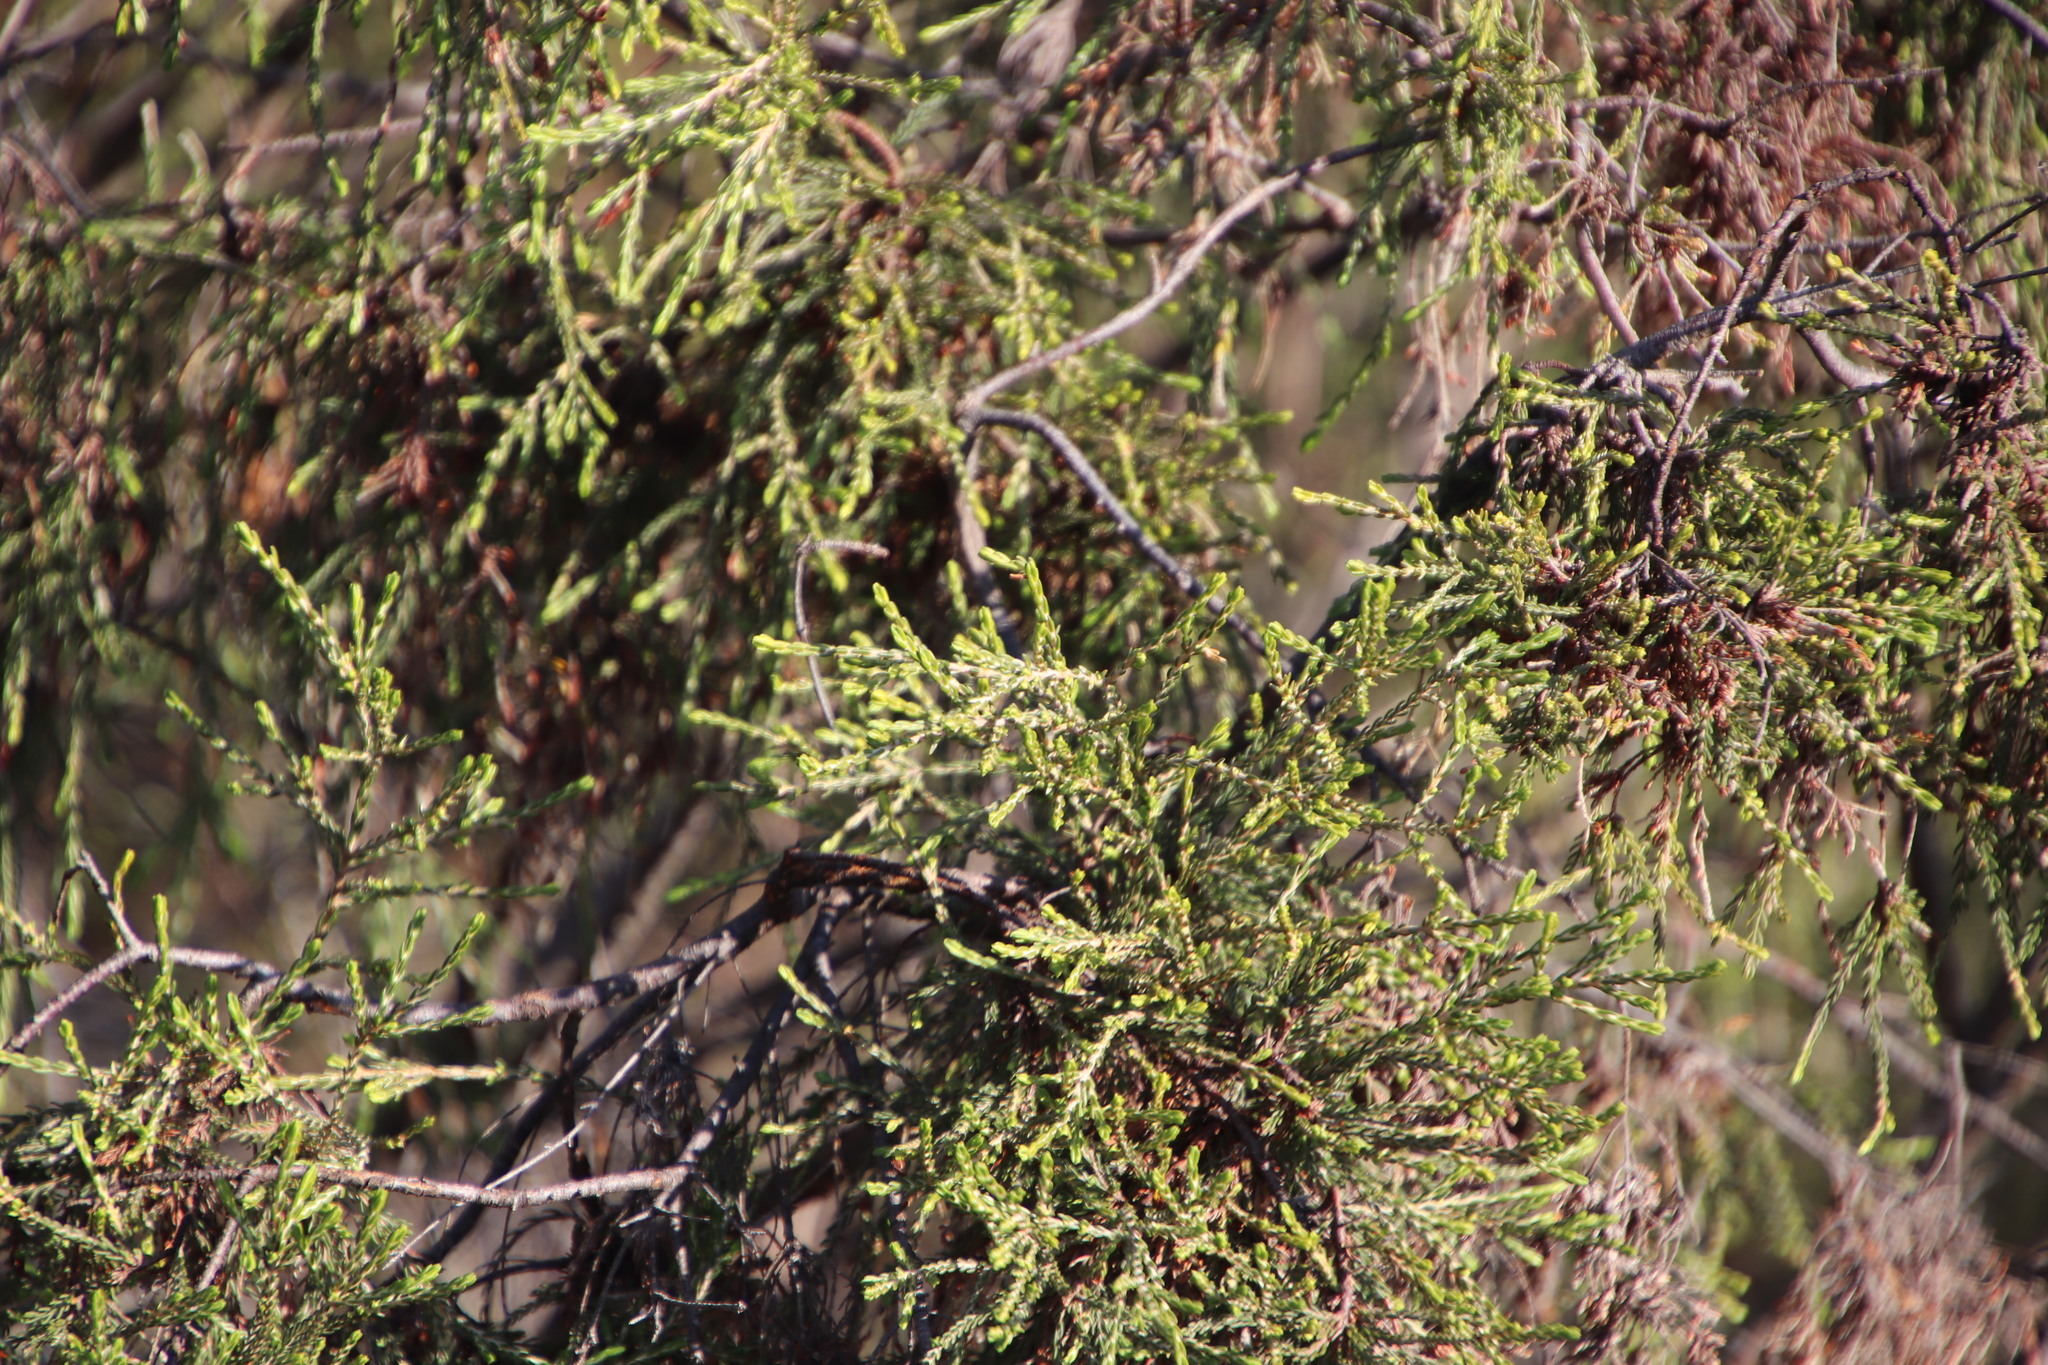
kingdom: Plantae
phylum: Tracheophyta
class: Magnoliopsida
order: Malvales
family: Thymelaeaceae
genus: Passerina
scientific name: Passerina corymbosa
